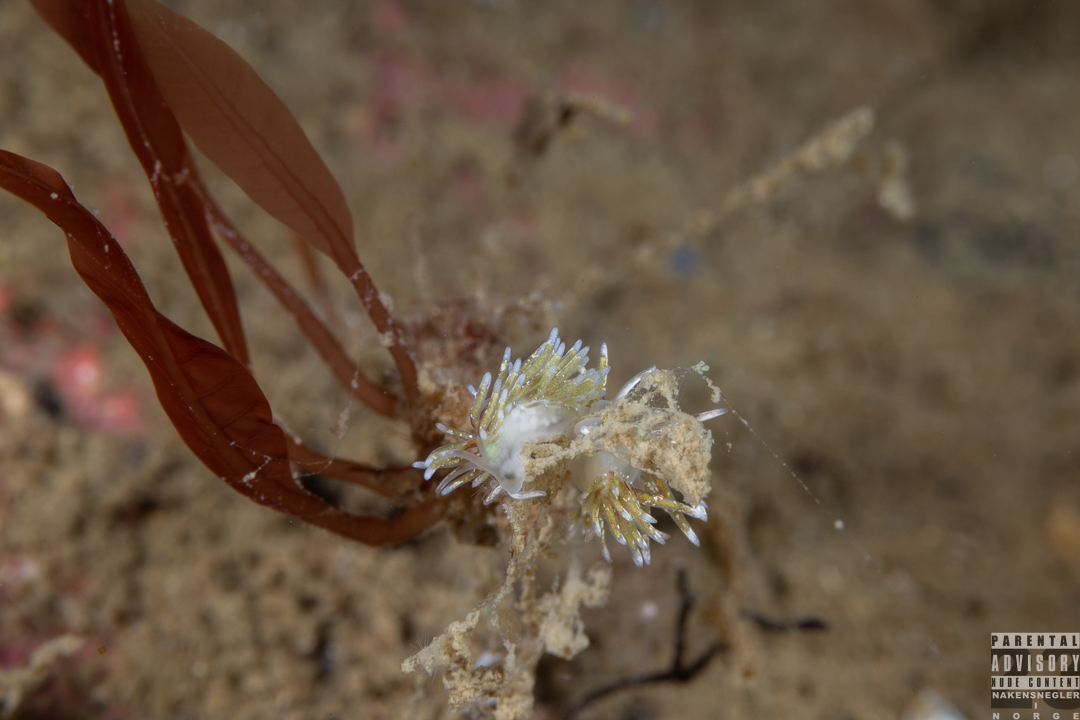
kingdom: Animalia
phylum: Mollusca
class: Gastropoda
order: Nudibranchia
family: Trinchesiidae
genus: Rubramoena
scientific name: Rubramoena rubescens
